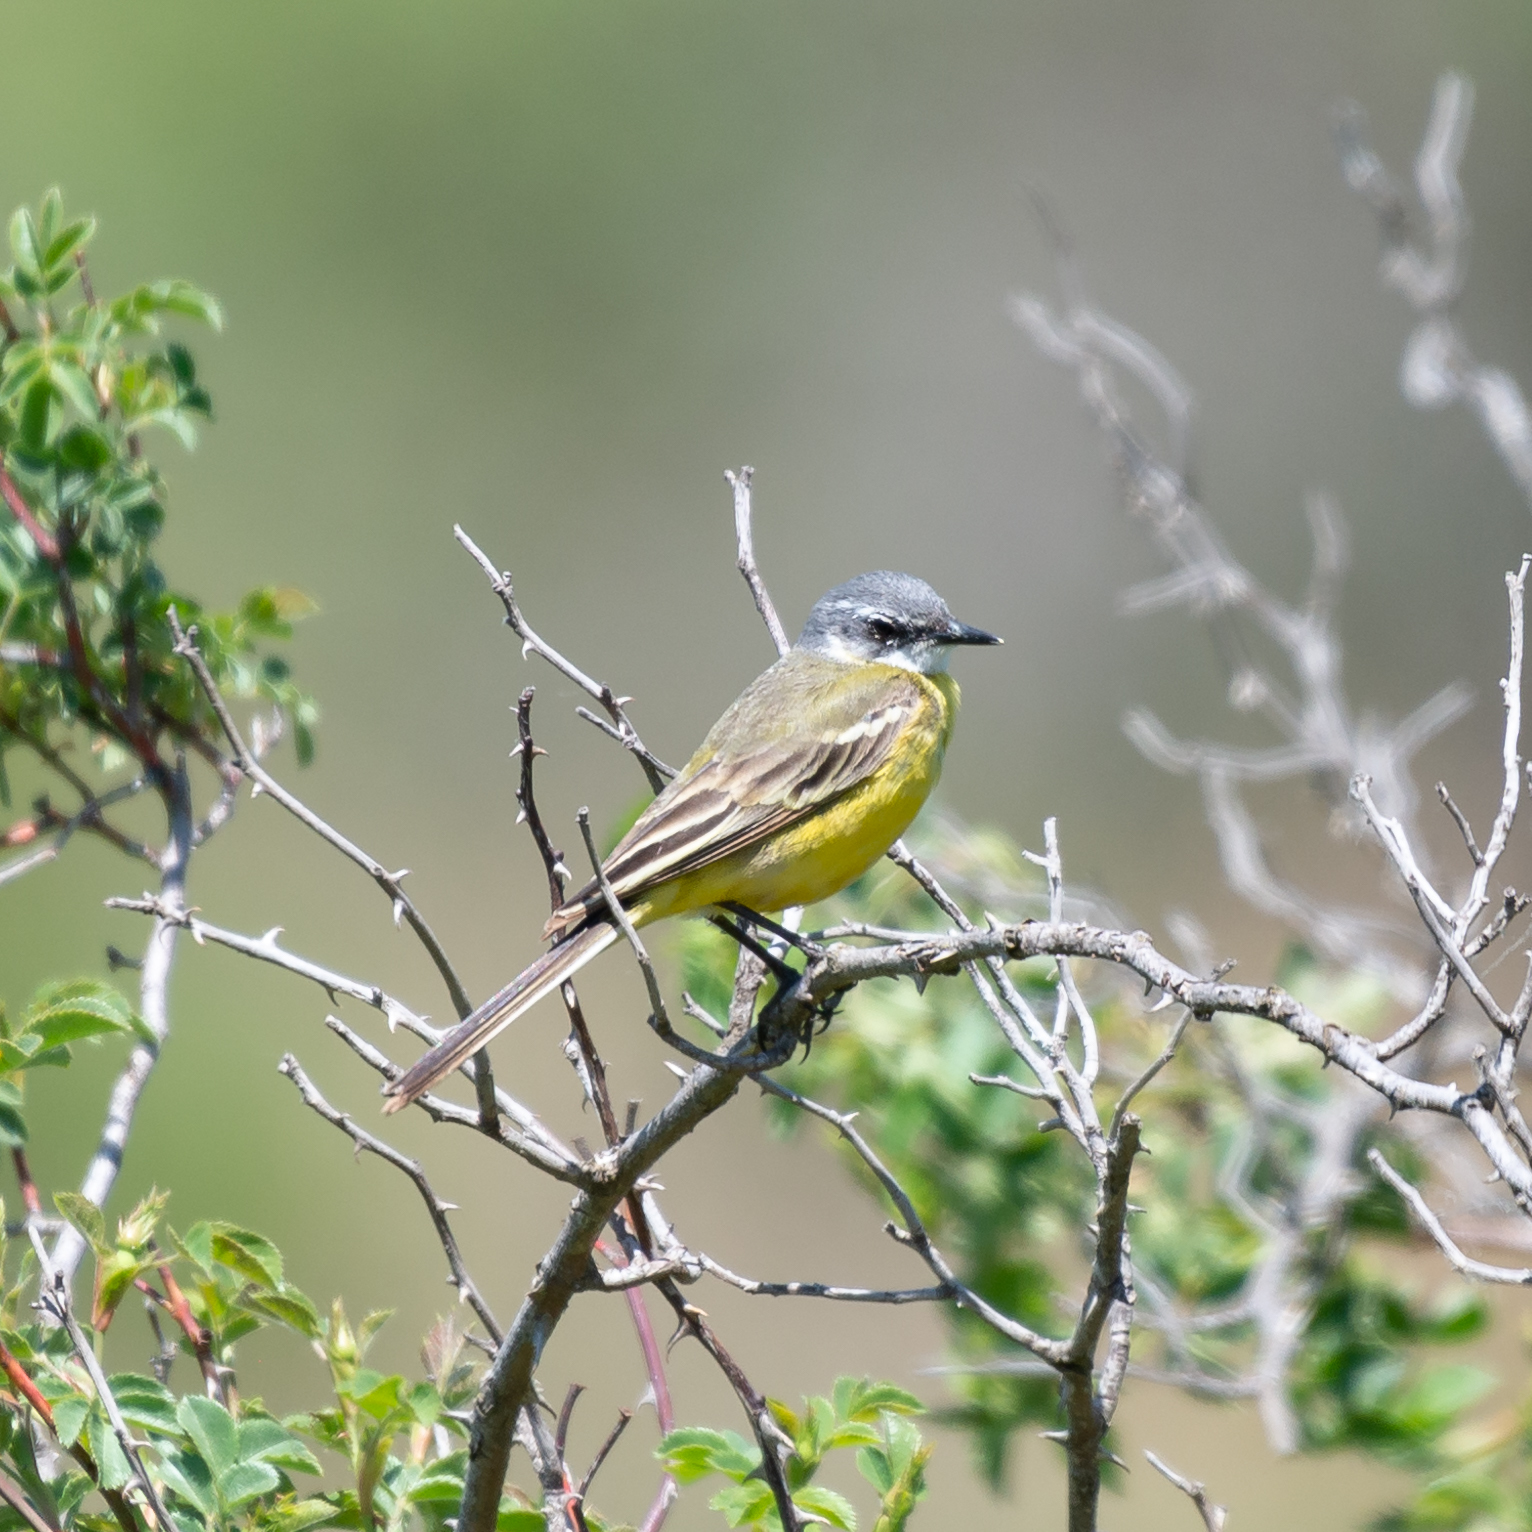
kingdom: Animalia
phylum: Chordata
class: Aves
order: Passeriformes
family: Motacillidae
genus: Motacilla
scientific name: Motacilla flava
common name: Western yellow wagtail
